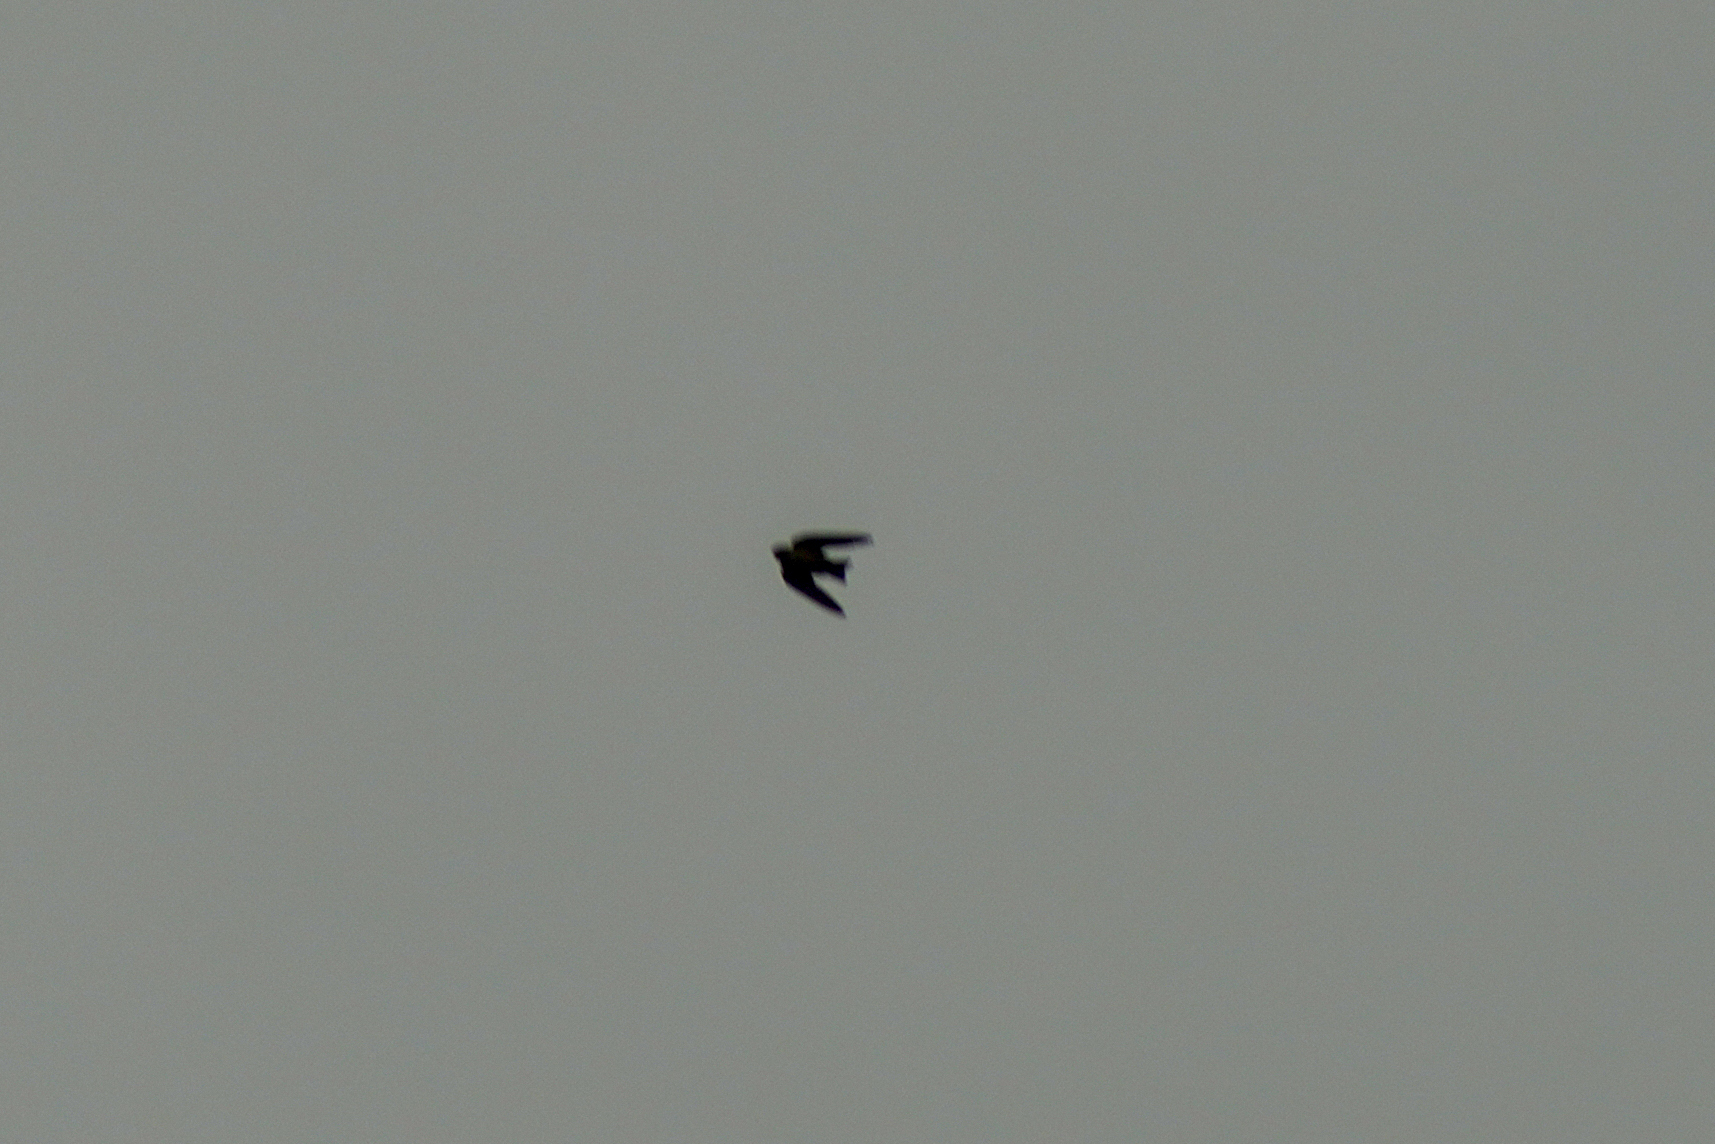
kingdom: Animalia
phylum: Chordata
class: Aves
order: Passeriformes
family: Hirundinidae
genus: Ptyonoprogne
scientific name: Ptyonoprogne rupestris
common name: Eurasian crag martin
